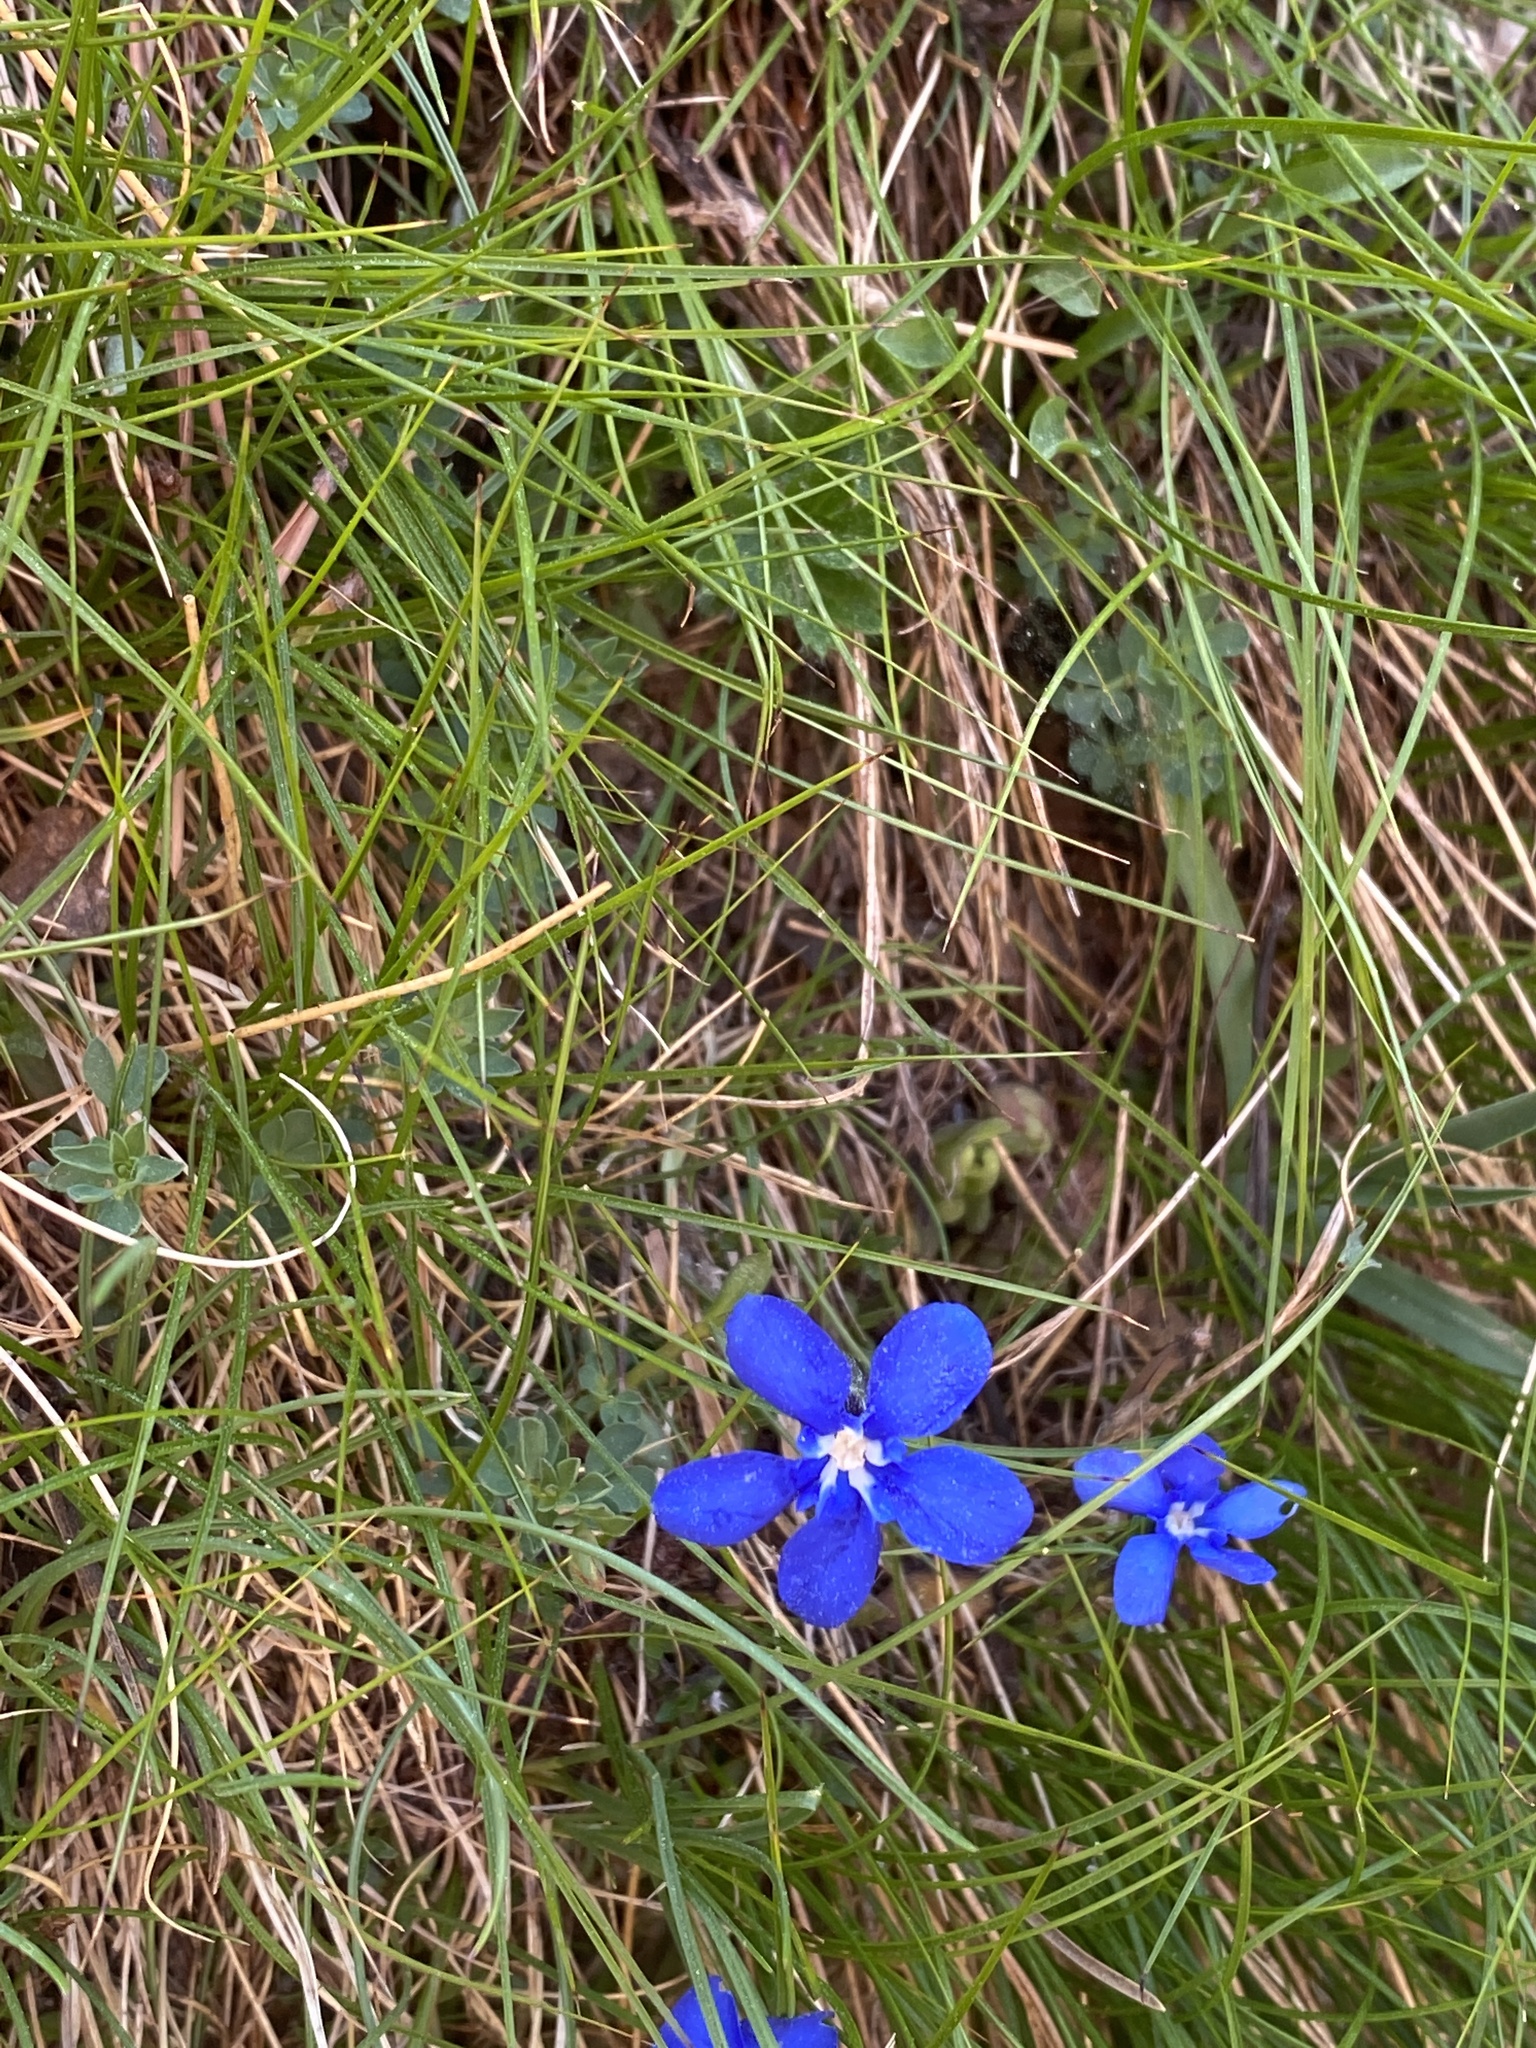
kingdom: Plantae
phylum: Tracheophyta
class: Magnoliopsida
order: Gentianales
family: Gentianaceae
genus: Gentiana
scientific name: Gentiana verna
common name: Spring gentian
